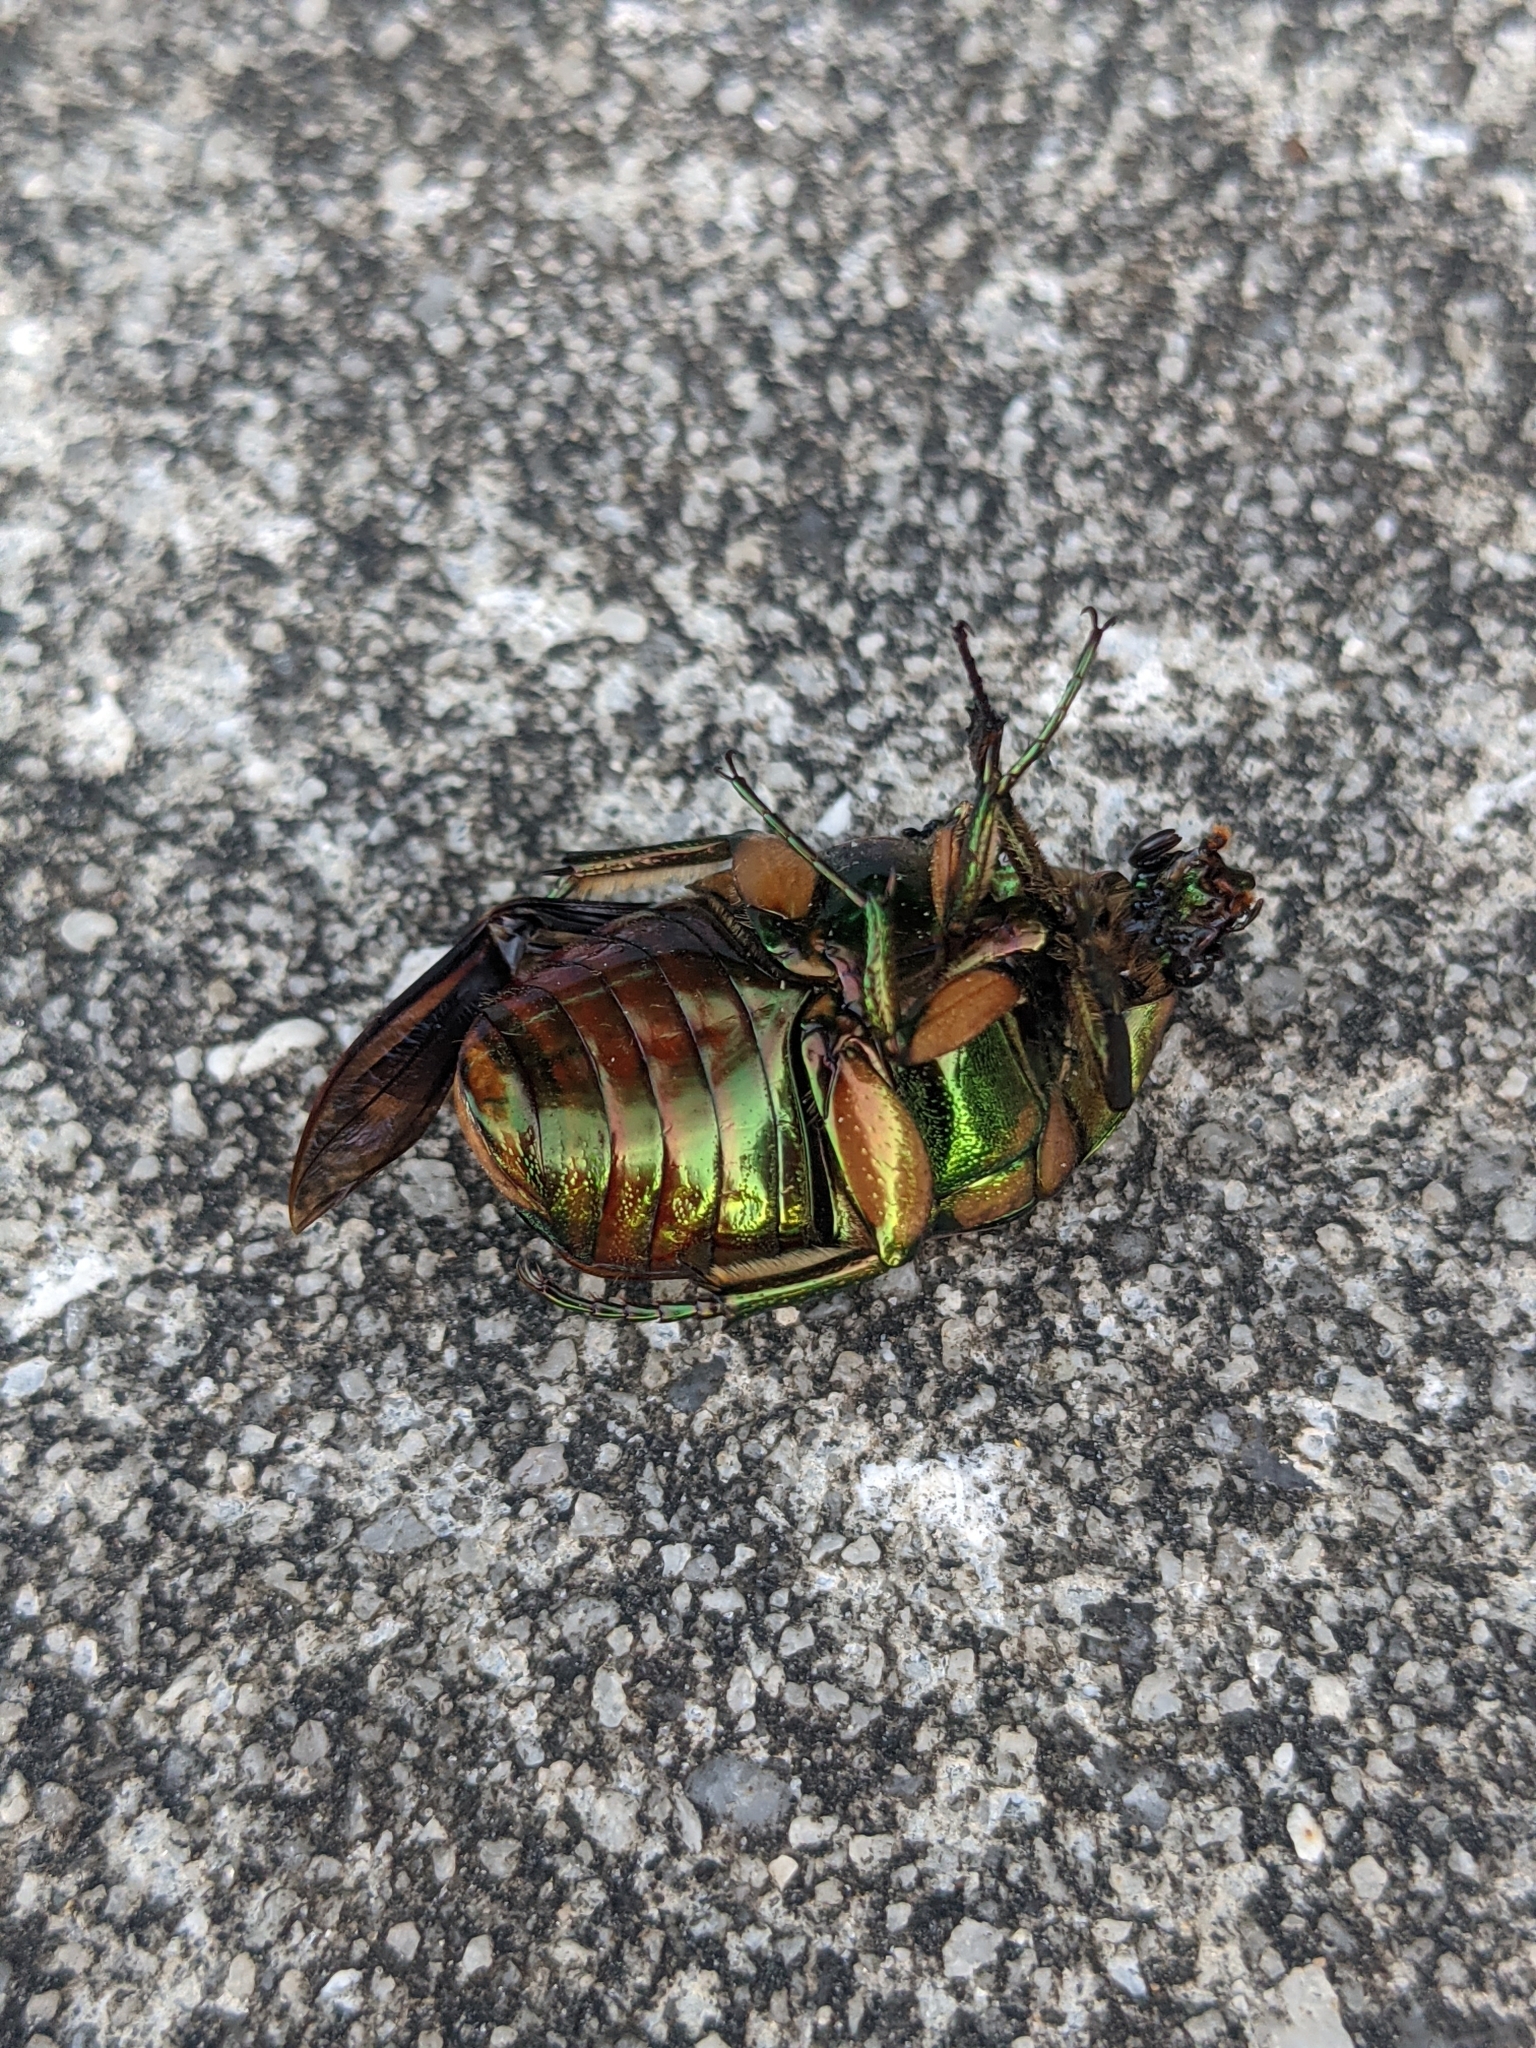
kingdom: Animalia
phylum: Arthropoda
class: Insecta
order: Coleoptera
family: Scarabaeidae
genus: Cotinis
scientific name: Cotinis nitida
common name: Common green june beetle
